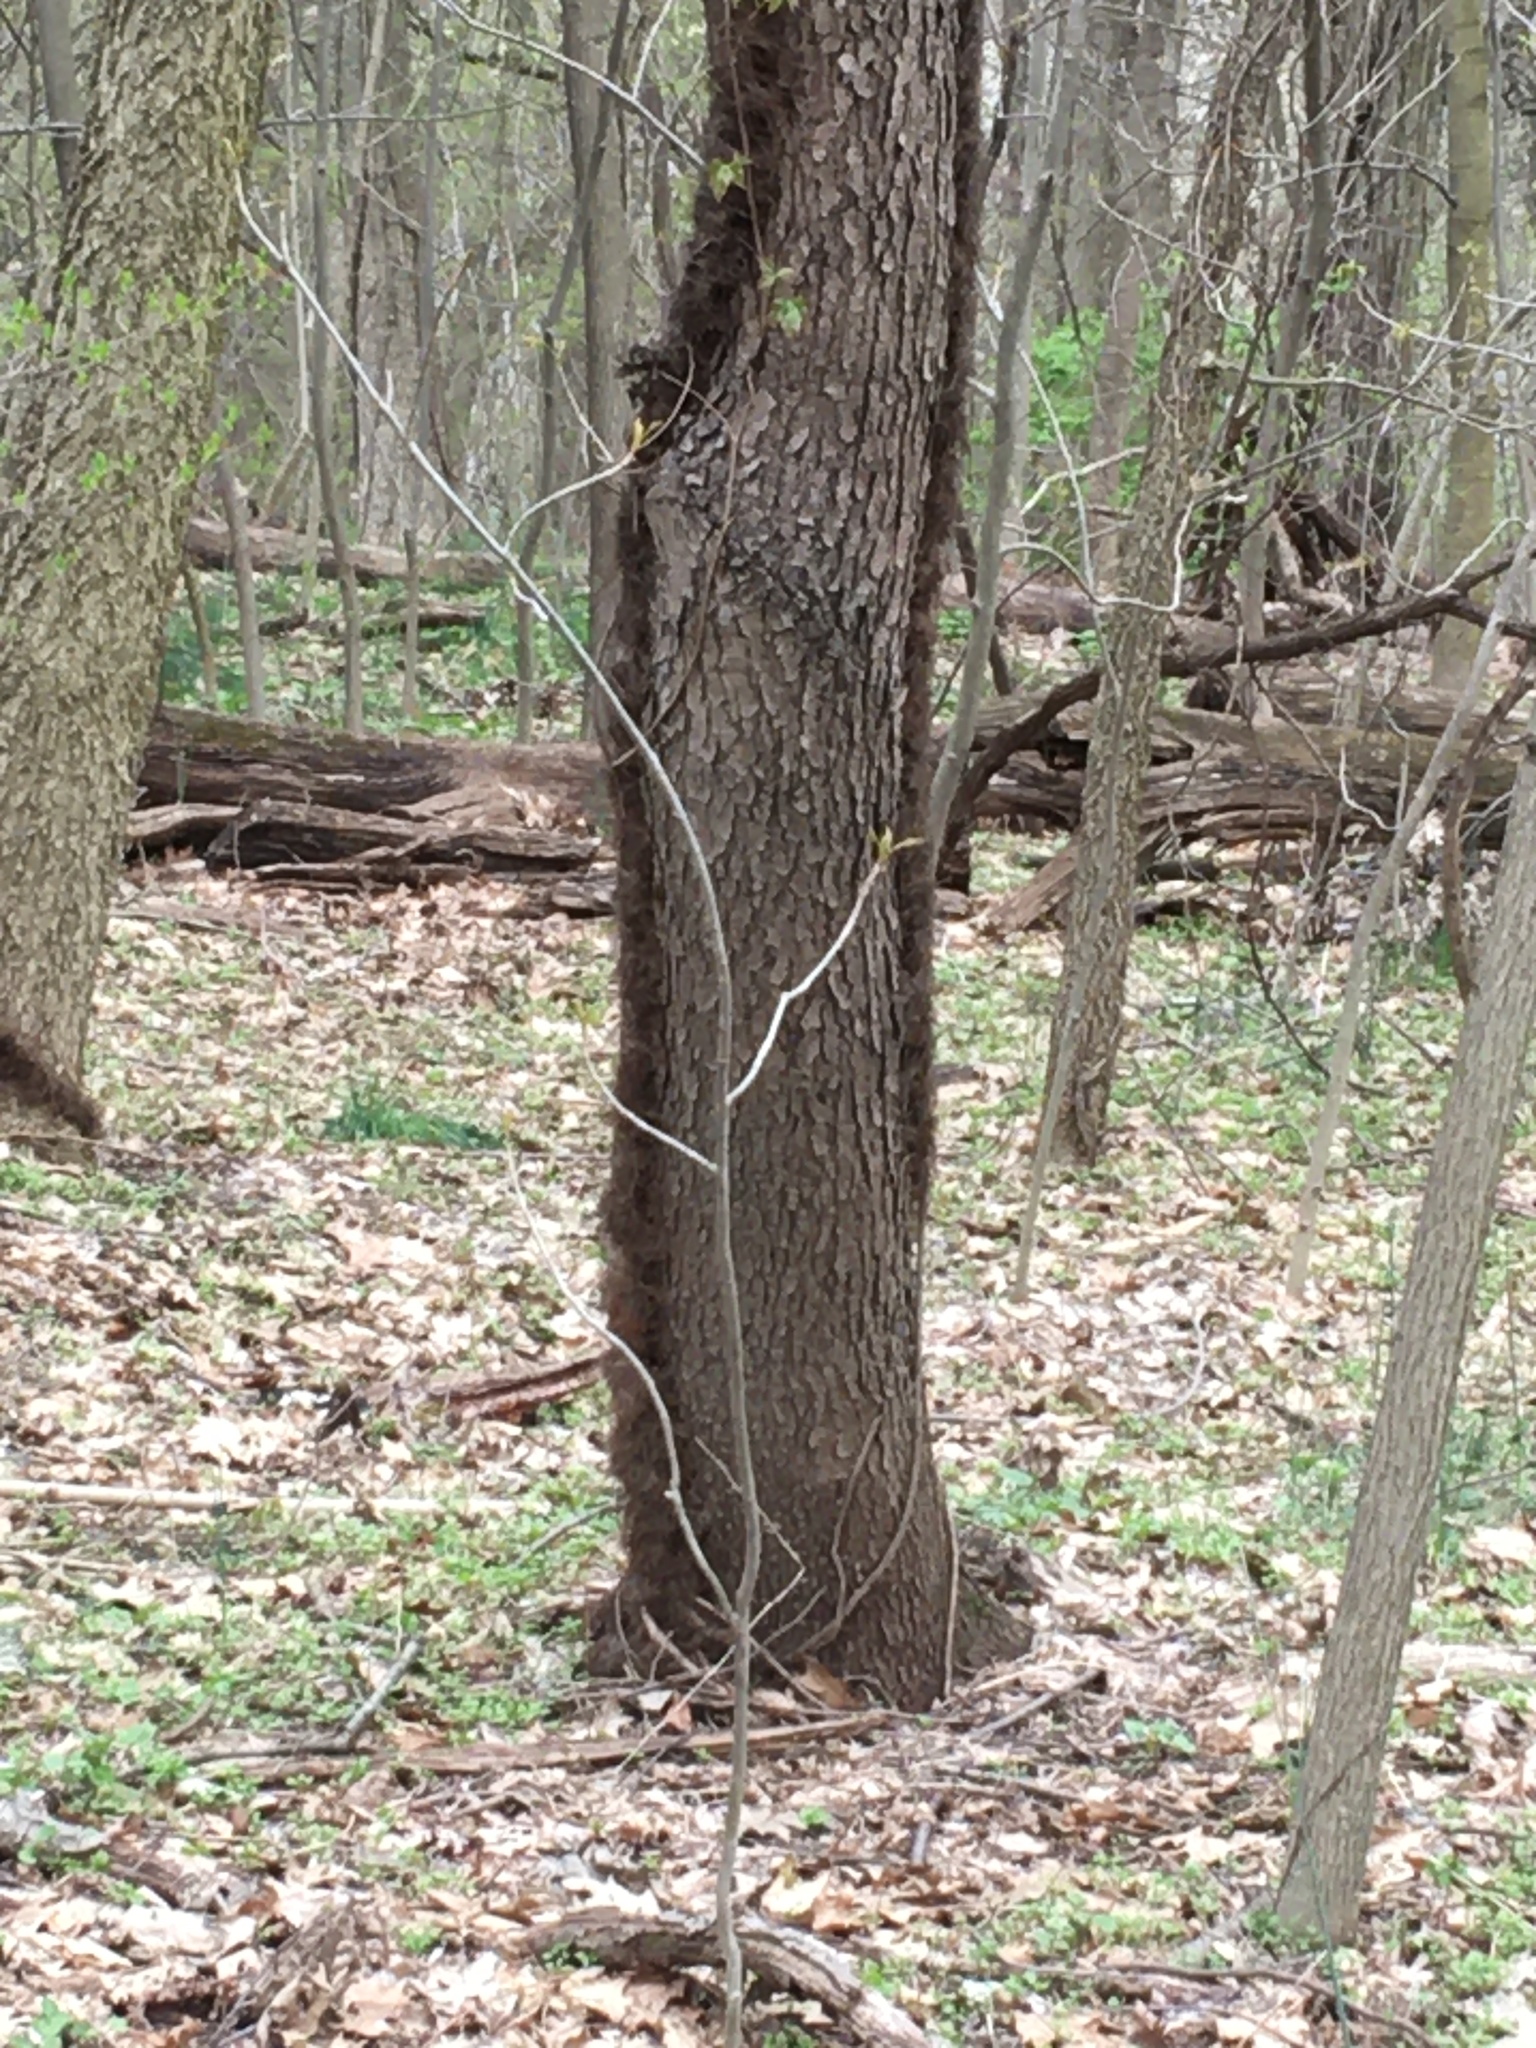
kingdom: Plantae
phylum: Tracheophyta
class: Magnoliopsida
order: Rosales
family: Rosaceae
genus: Prunus
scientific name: Prunus serotina
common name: Black cherry
